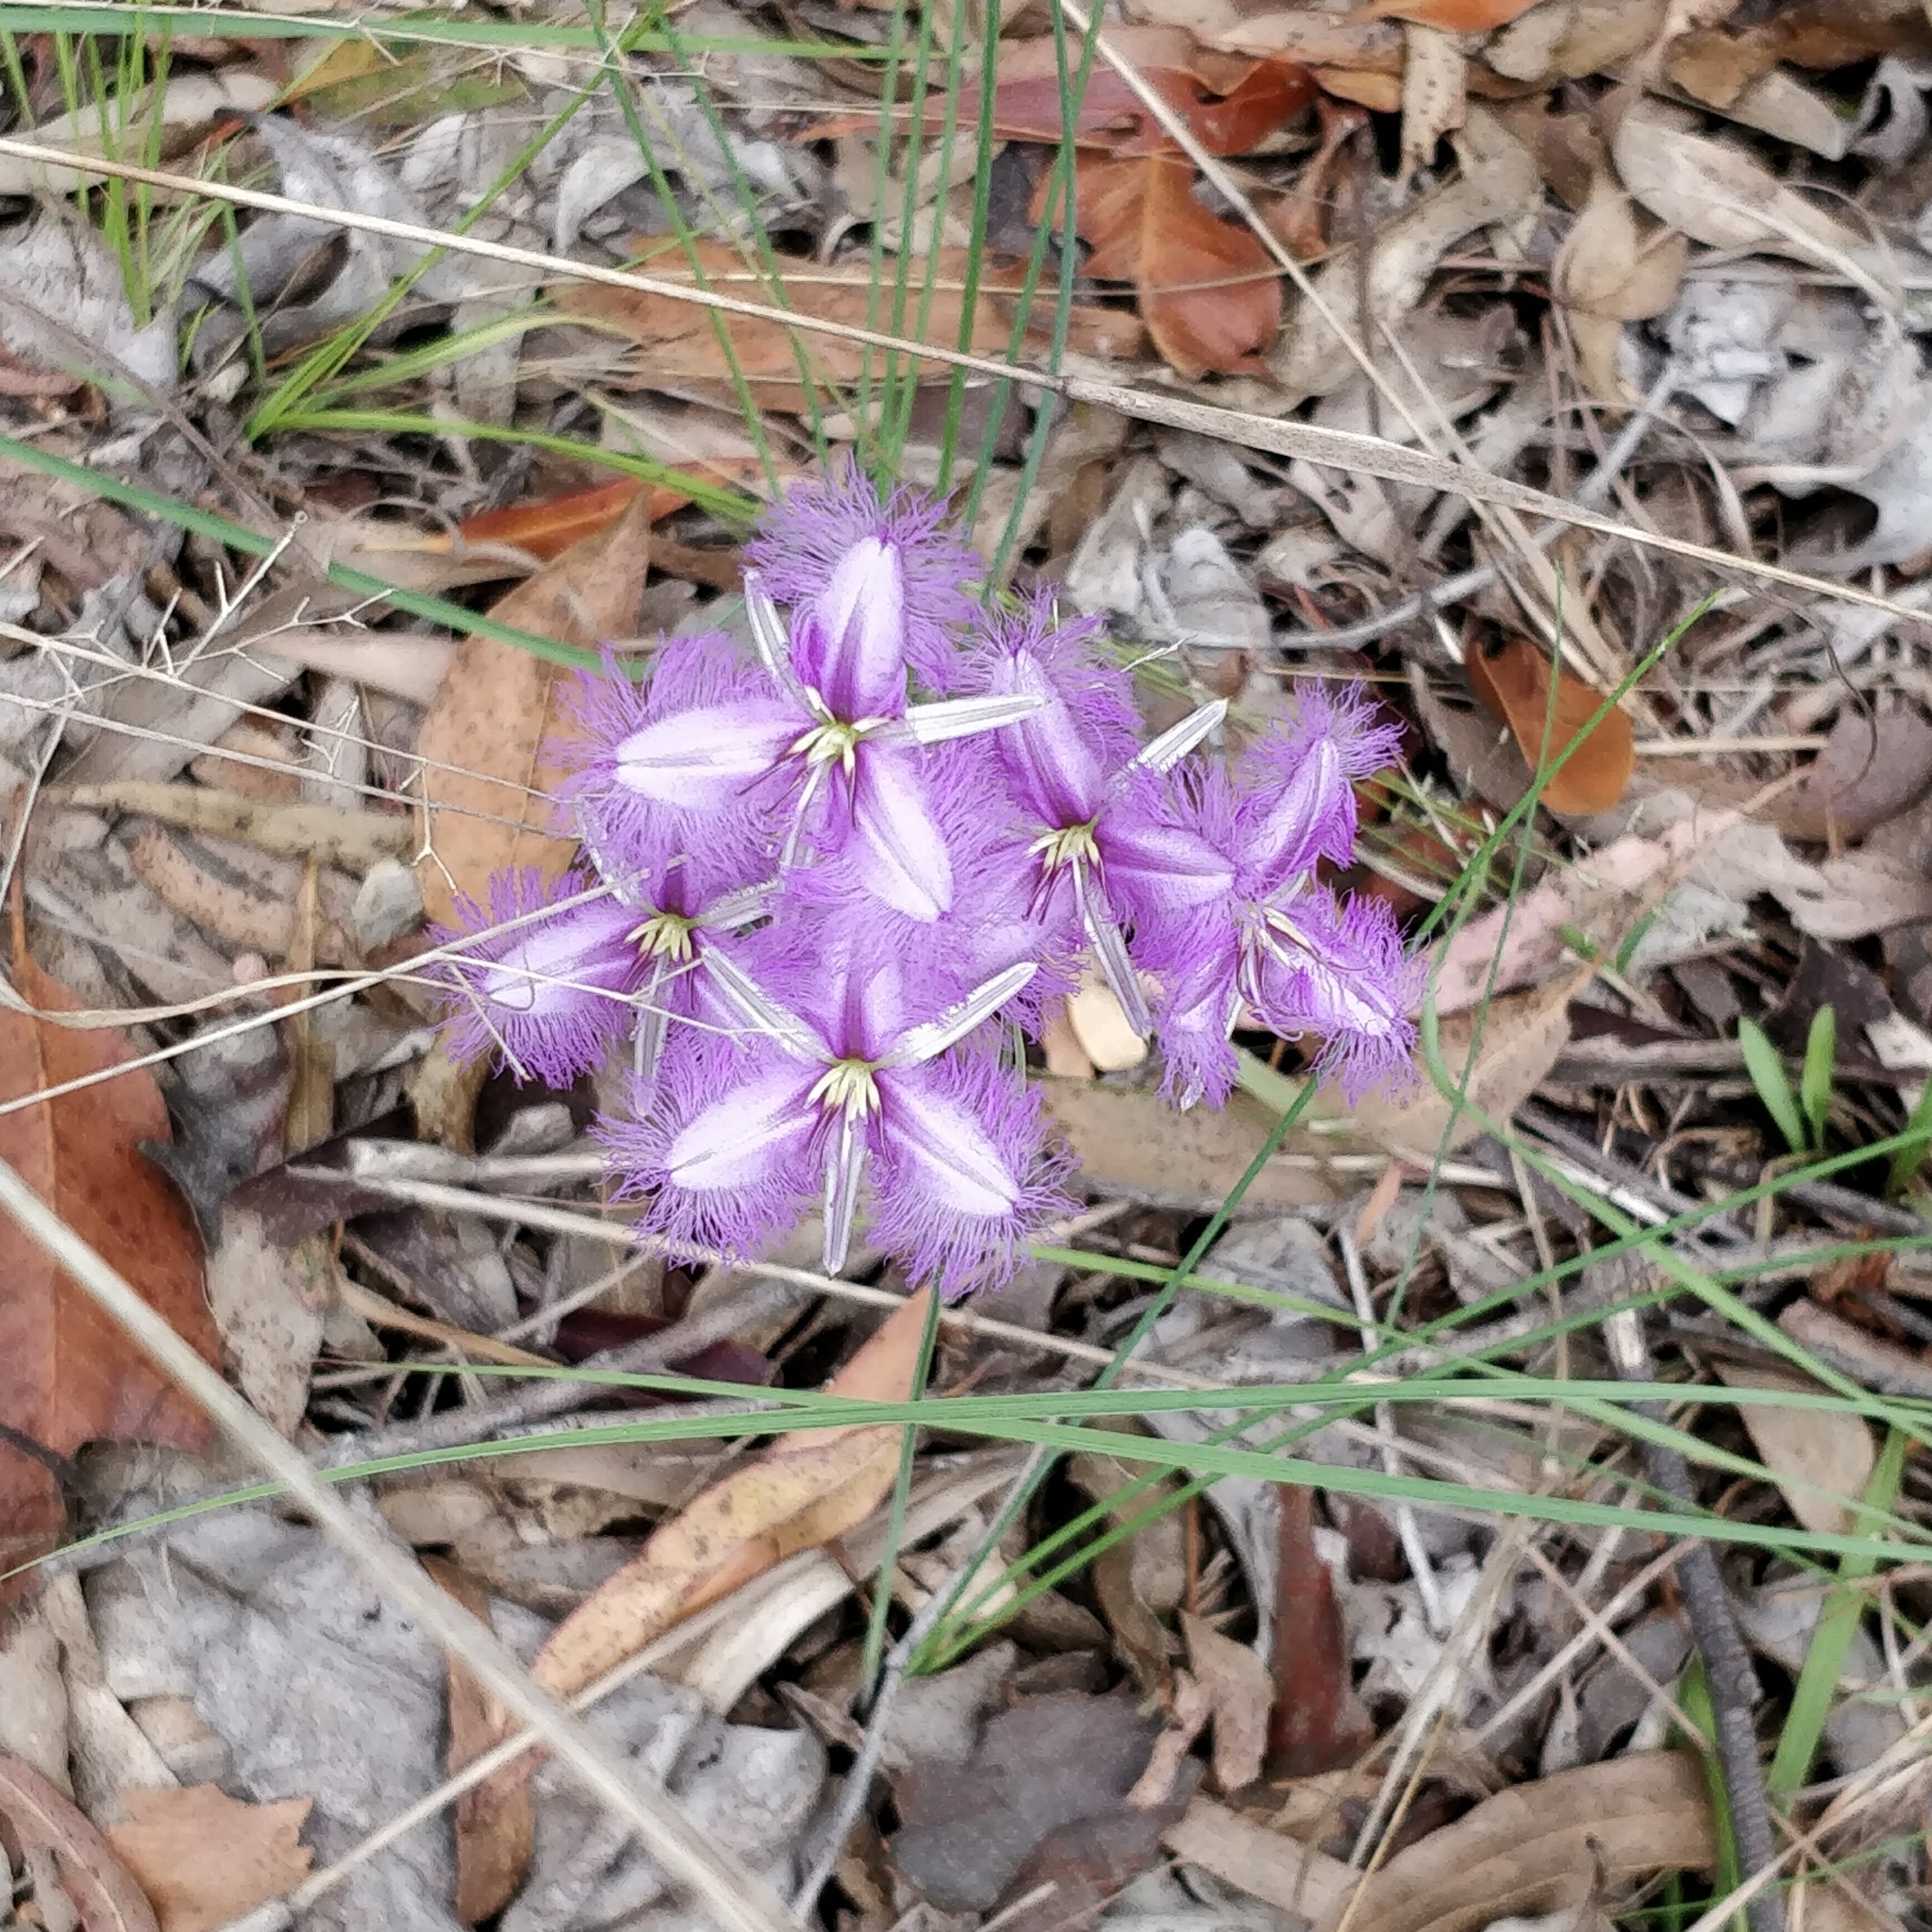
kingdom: Plantae
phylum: Tracheophyta
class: Liliopsida
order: Asparagales
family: Asparagaceae
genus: Thysanotus
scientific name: Thysanotus tuberosus
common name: Common fringed-lily
